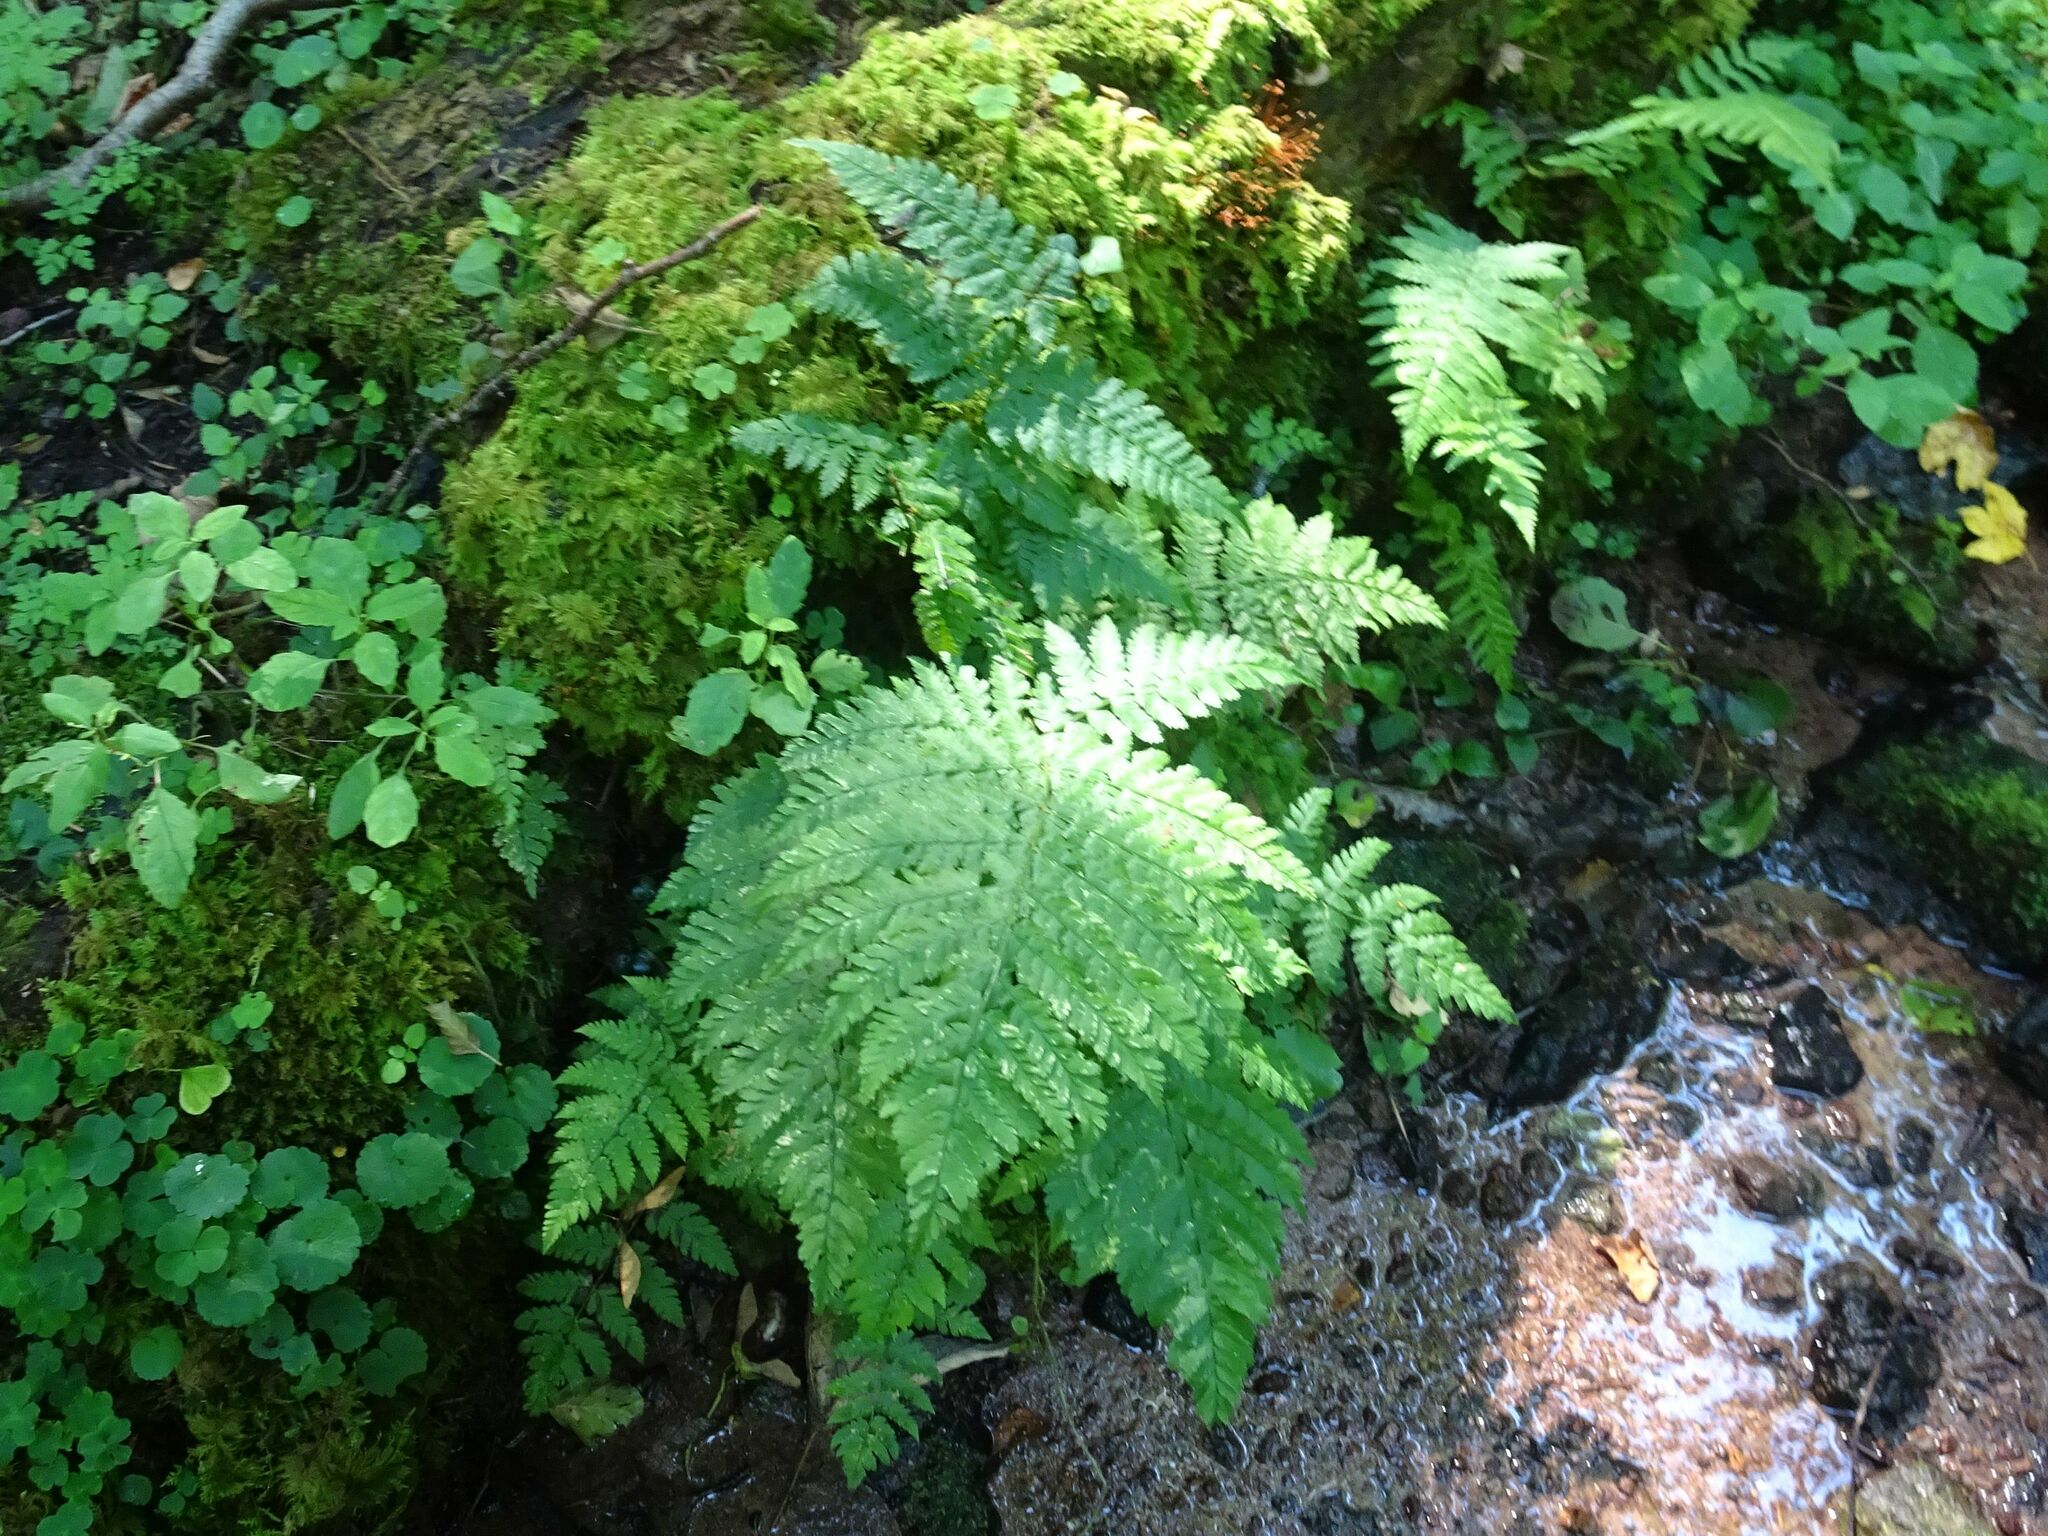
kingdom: Plantae
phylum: Tracheophyta
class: Polypodiopsida
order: Polypodiales
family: Dryopteridaceae
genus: Dryopteris
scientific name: Dryopteris dilatata
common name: Broad buckler-fern
